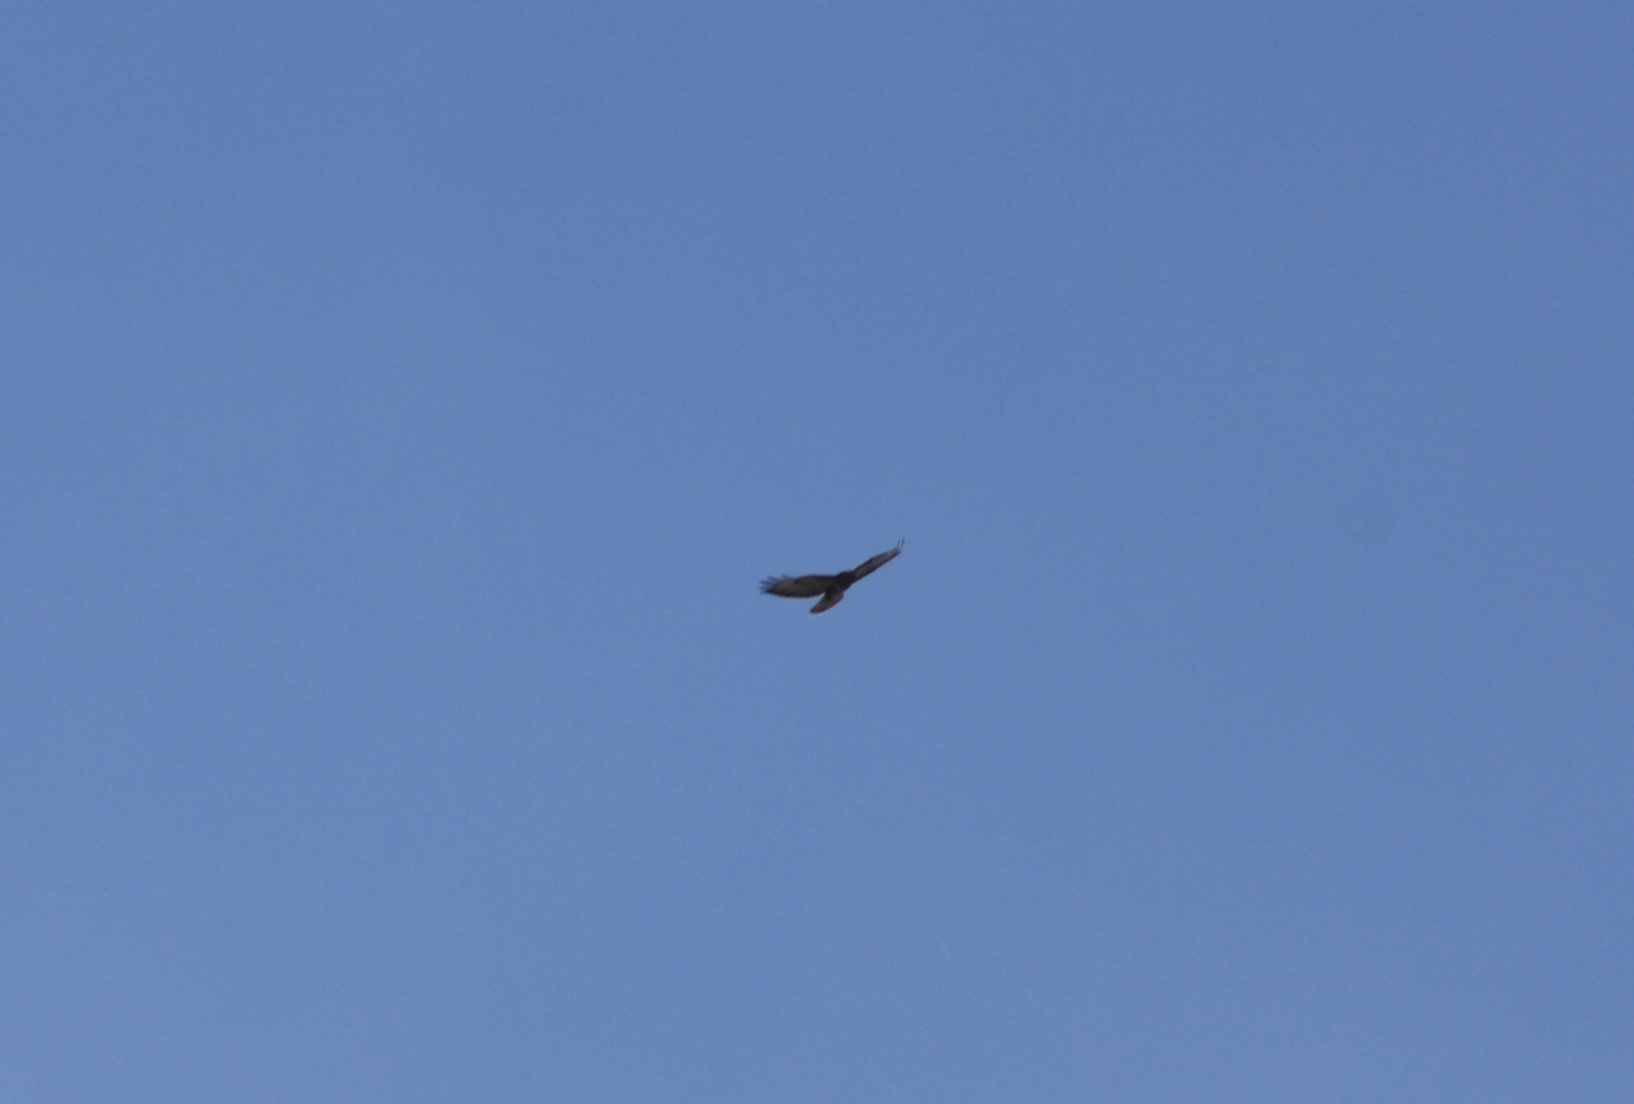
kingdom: Animalia
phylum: Chordata
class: Aves
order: Accipitriformes
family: Accipitridae
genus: Buteo
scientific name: Buteo buteo
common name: Common buzzard
